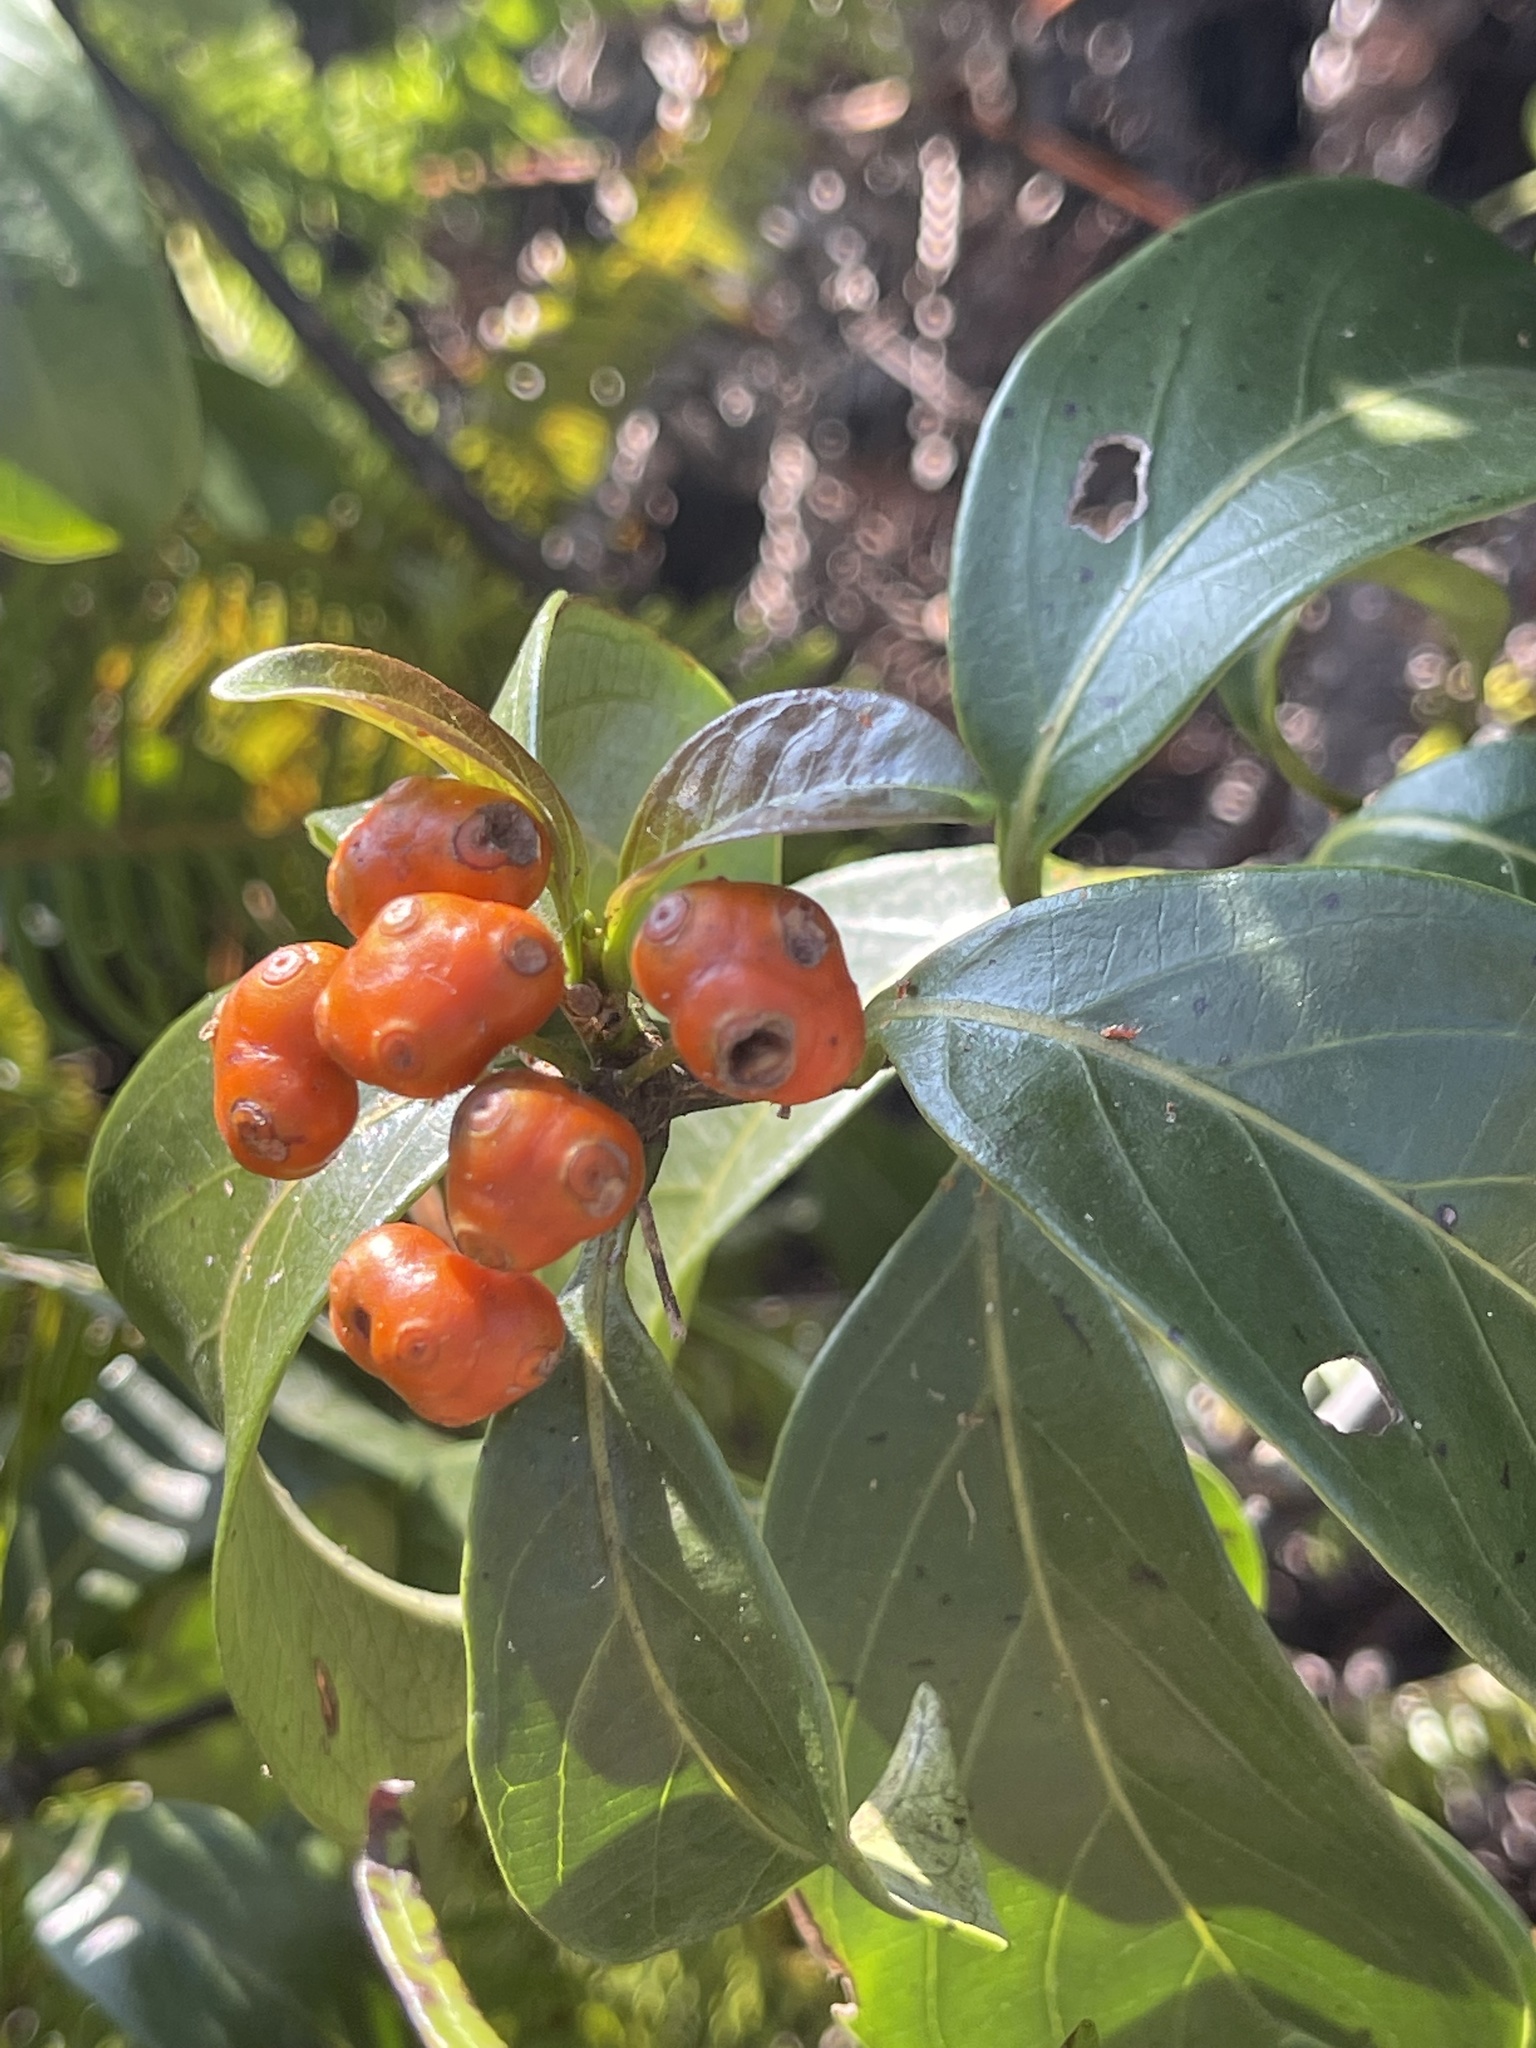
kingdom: Plantae
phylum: Tracheophyta
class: Magnoliopsida
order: Gentianales
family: Rubiaceae
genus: Gynochthodes
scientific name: Gynochthodes umbellata
